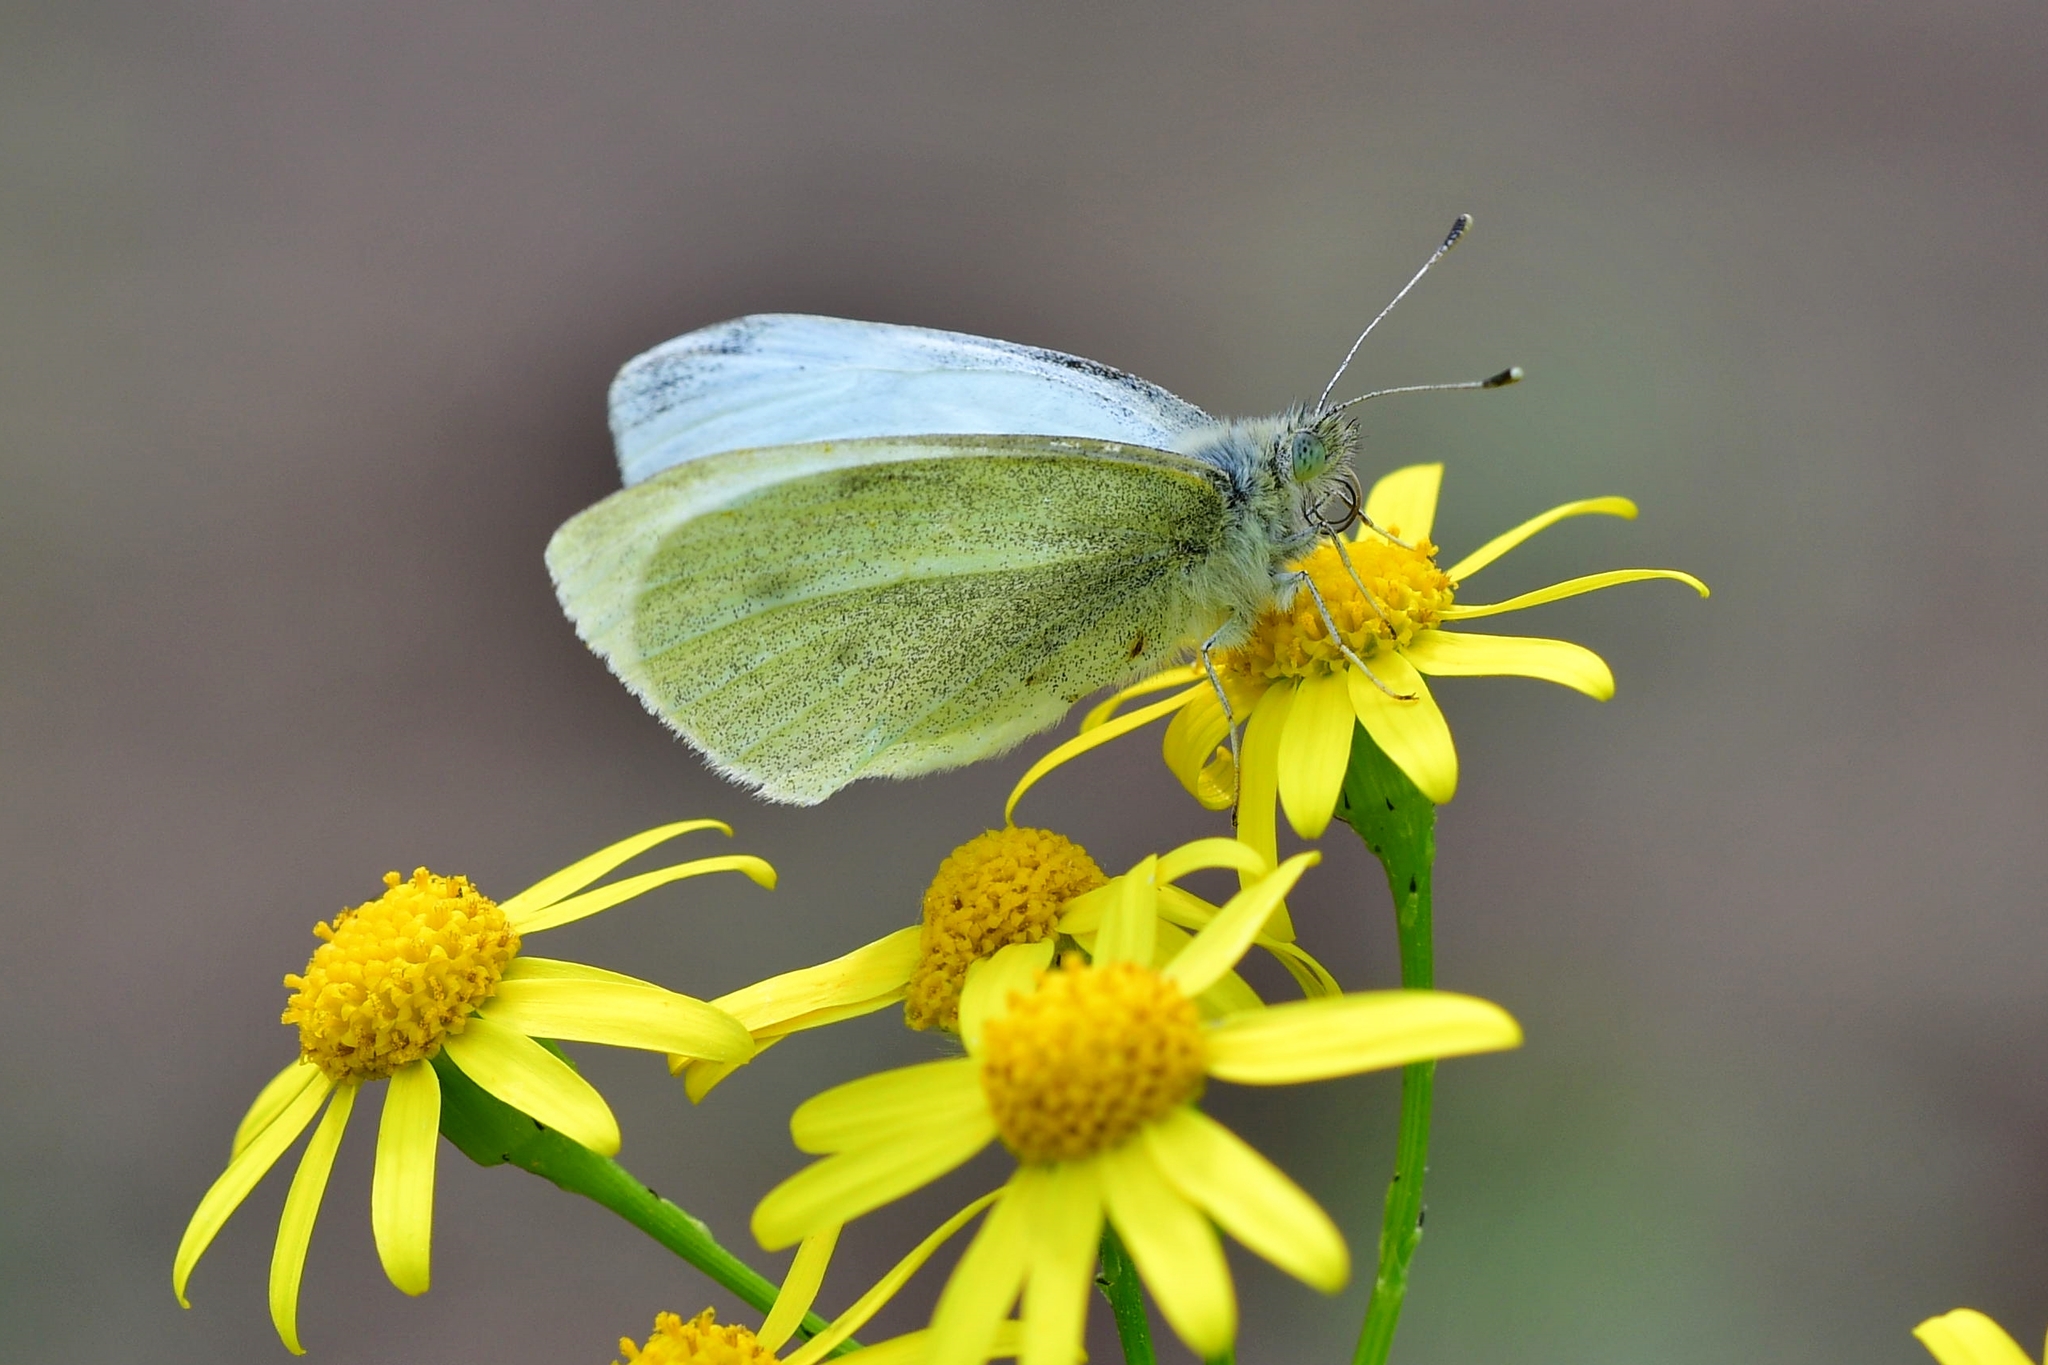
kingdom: Animalia
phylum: Arthropoda
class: Insecta
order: Lepidoptera
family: Pieridae
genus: Pieris
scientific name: Pieris rapae
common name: Small white
